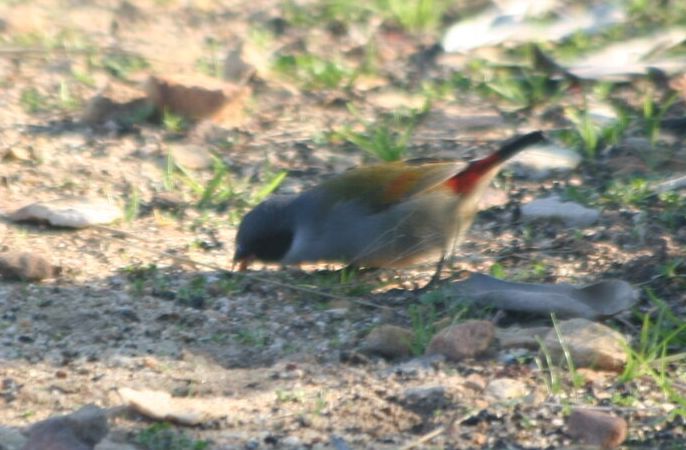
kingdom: Animalia
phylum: Chordata
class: Aves
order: Passeriformes
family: Estrildidae
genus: Coccopygia
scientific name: Coccopygia melanotis
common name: Swee waxbill
